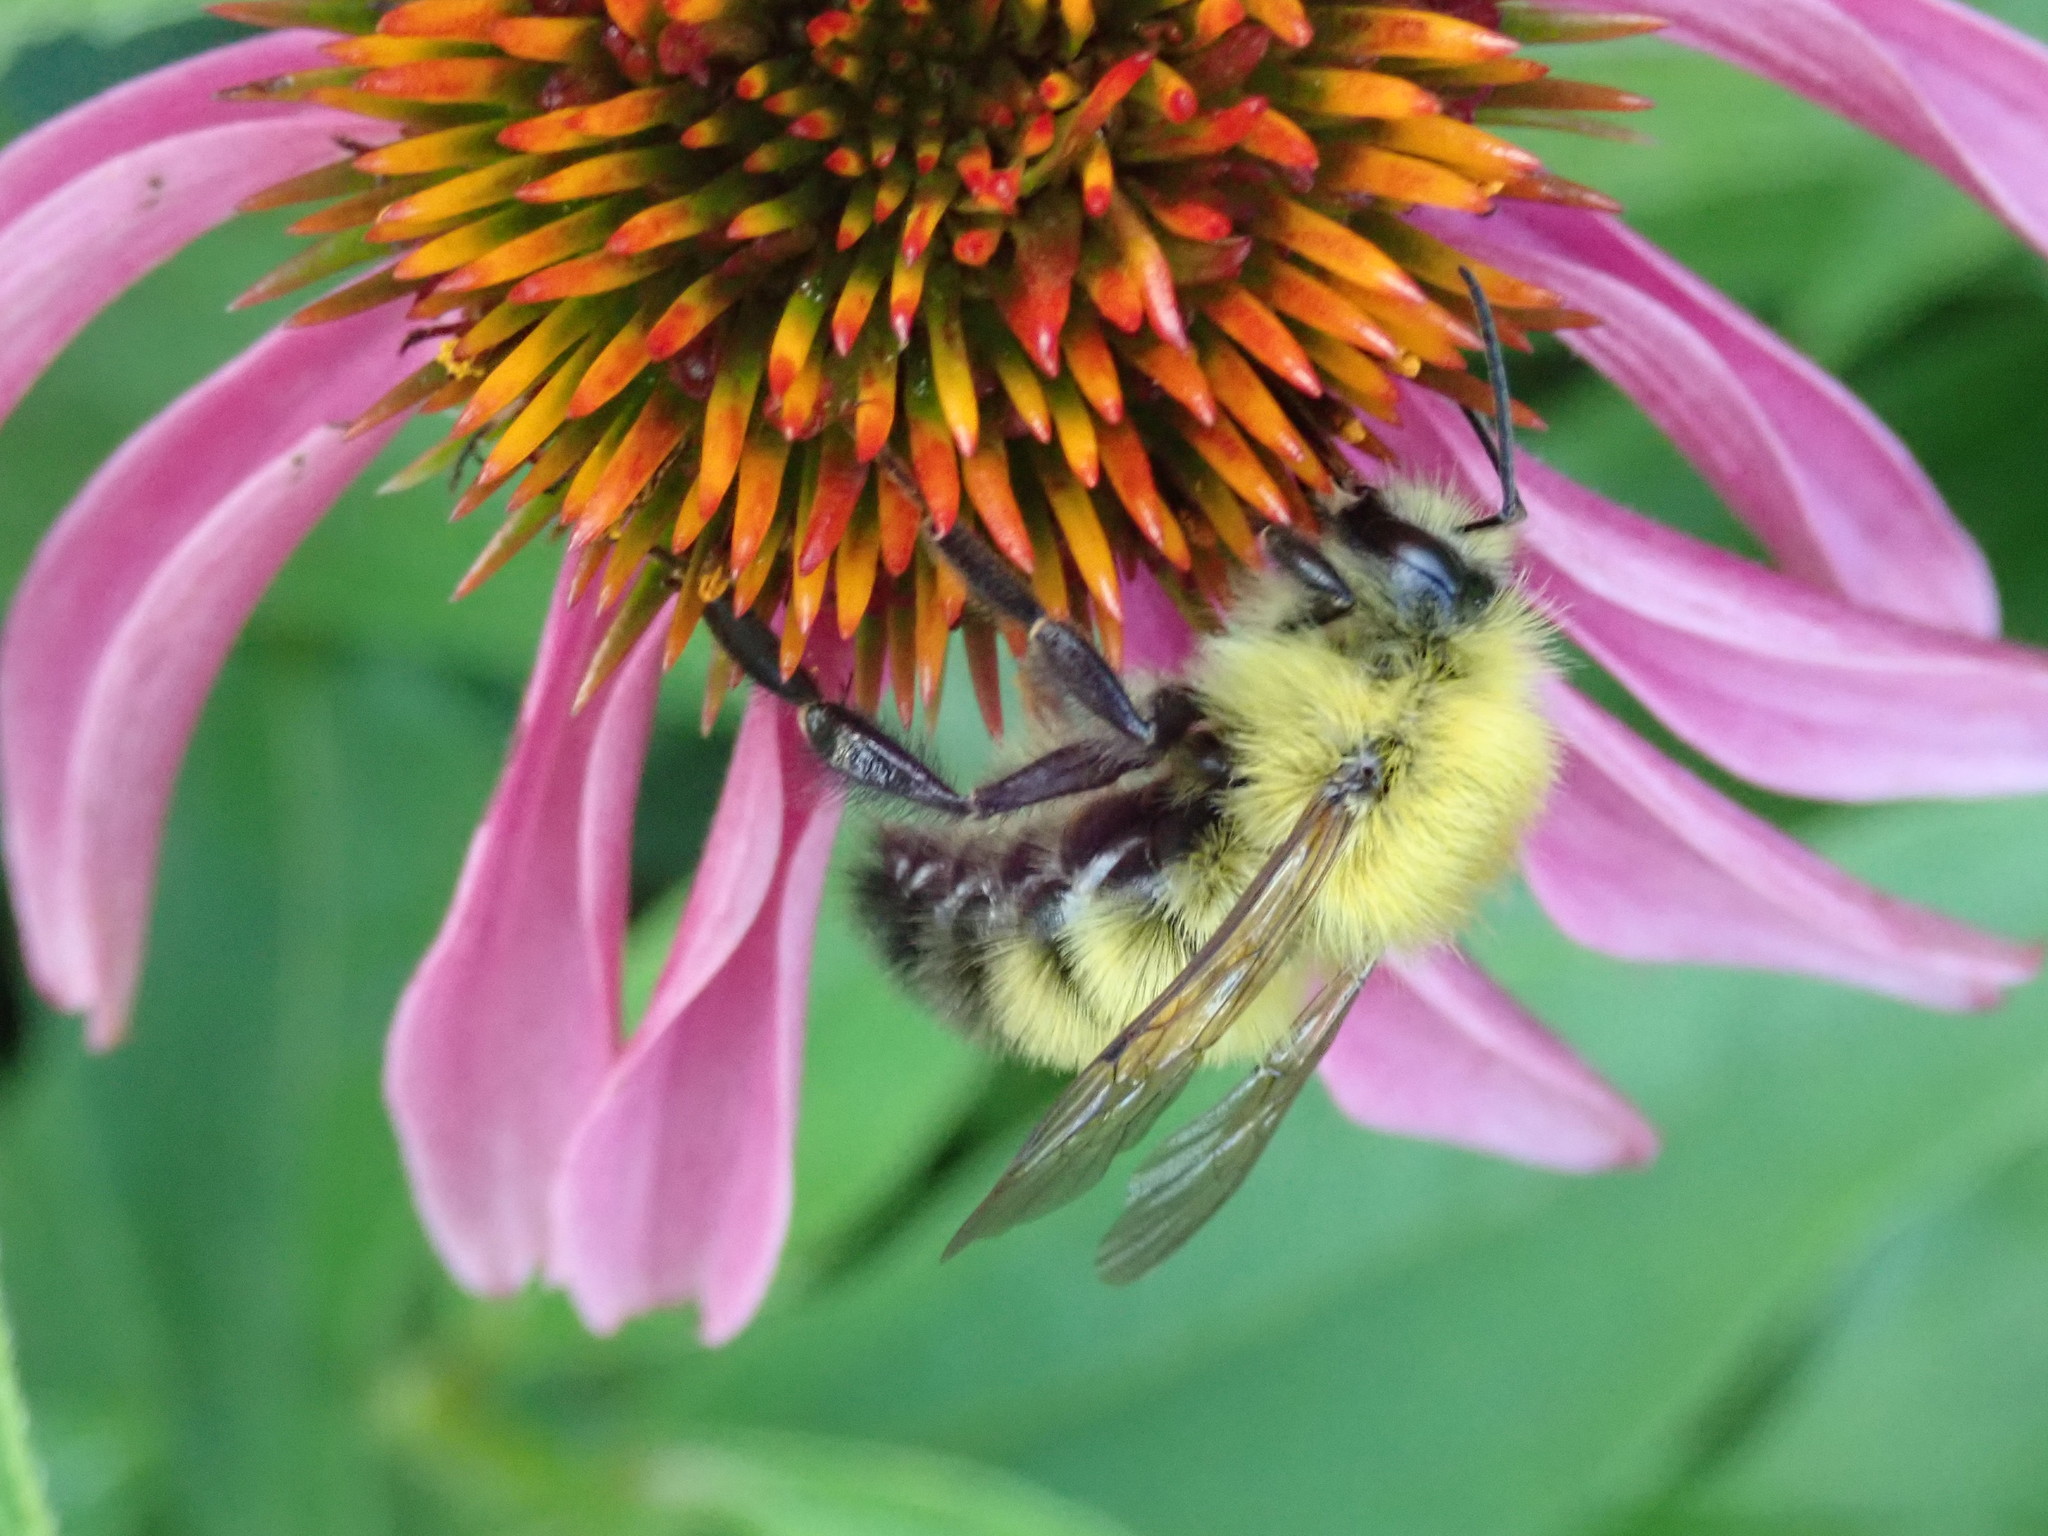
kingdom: Animalia
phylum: Arthropoda
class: Insecta
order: Hymenoptera
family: Apidae
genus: Bombus
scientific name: Bombus perplexus
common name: Confusing bumble bee
